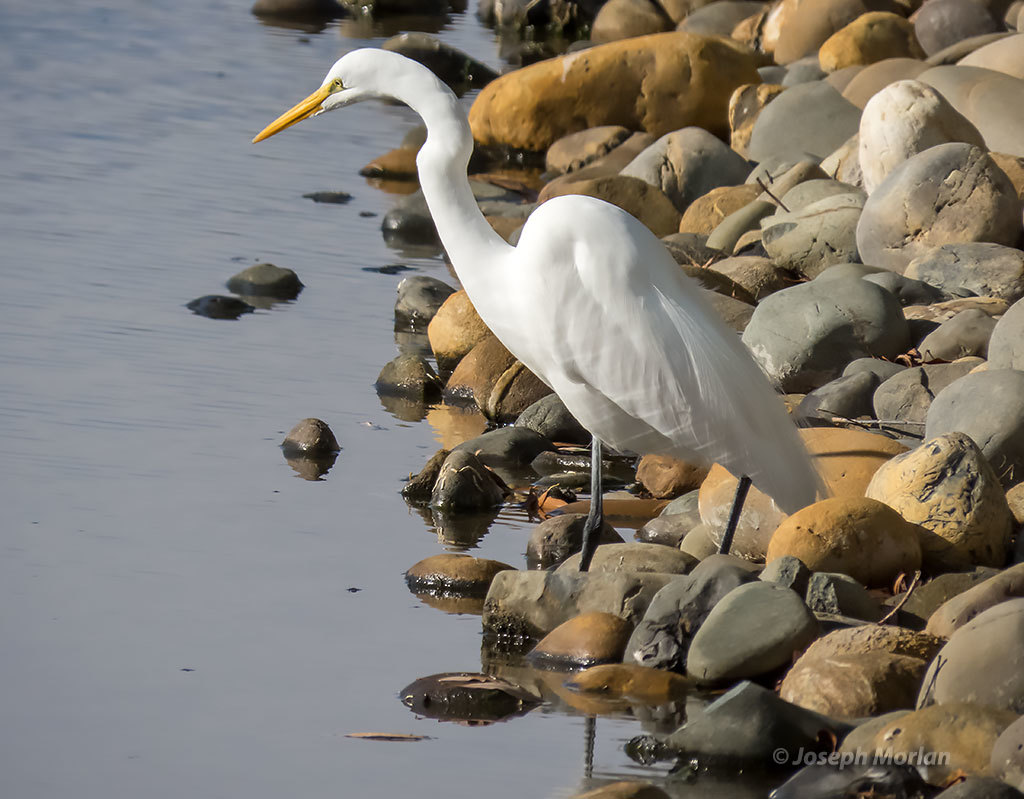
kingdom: Animalia
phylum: Chordata
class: Aves
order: Pelecaniformes
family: Ardeidae
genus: Ardea
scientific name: Ardea alba
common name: Great egret
